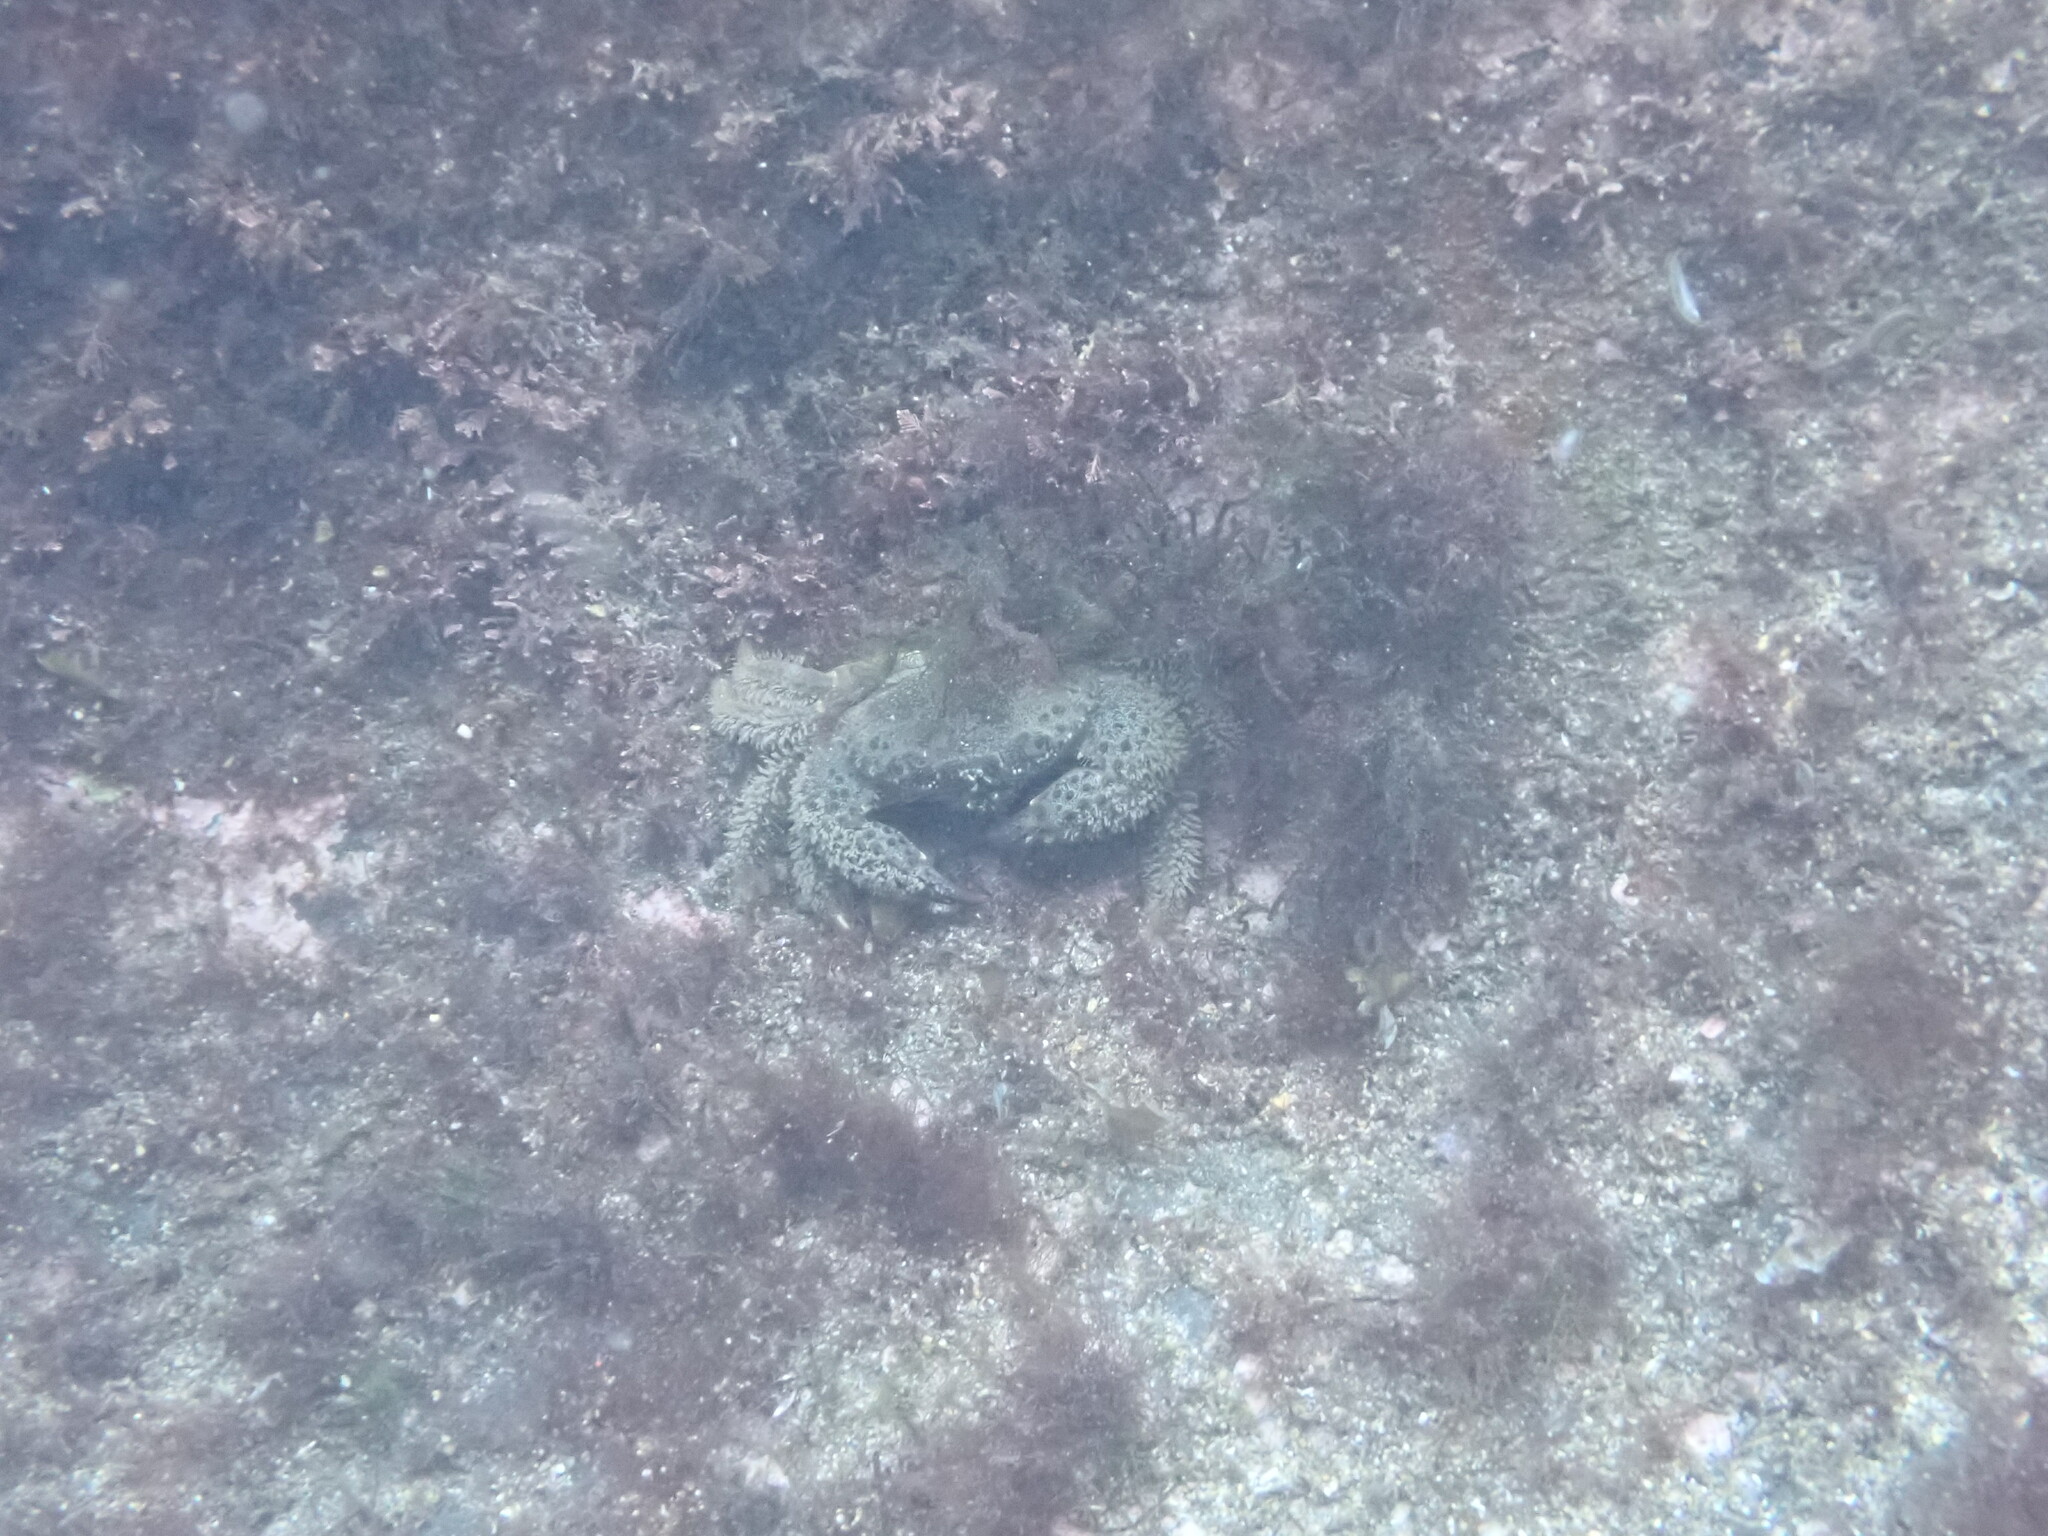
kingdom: Animalia
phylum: Arthropoda
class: Malacostraca
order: Decapoda
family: Eriphiidae
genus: Eriphia
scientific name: Eriphia verrucosa
